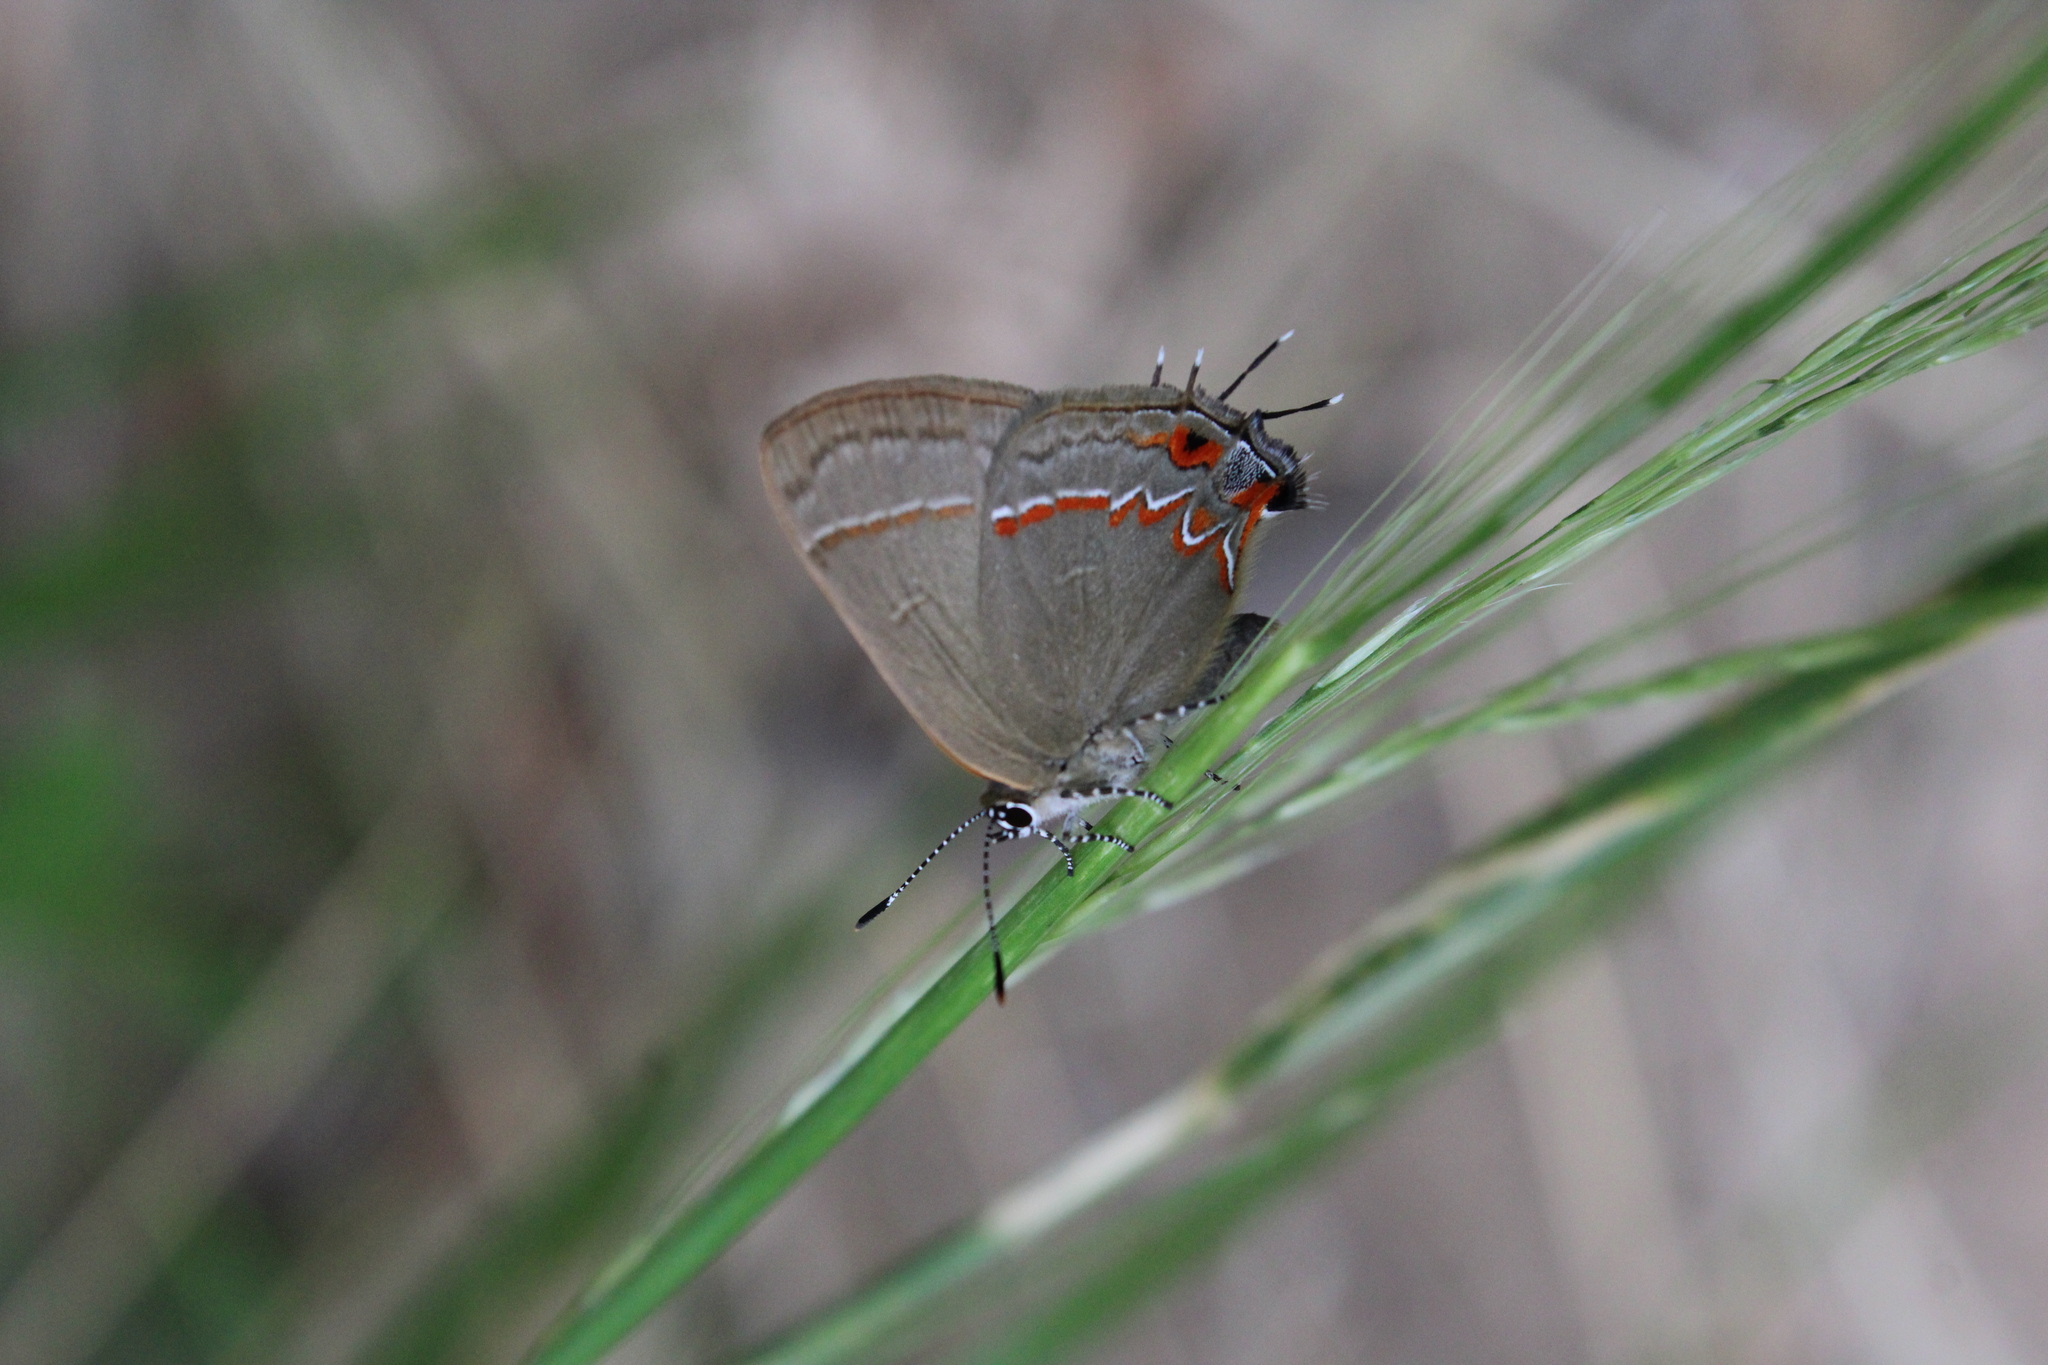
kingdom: Animalia
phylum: Arthropoda
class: Insecta
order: Lepidoptera
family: Lycaenidae
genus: Calycopis
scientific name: Calycopis caulonia
